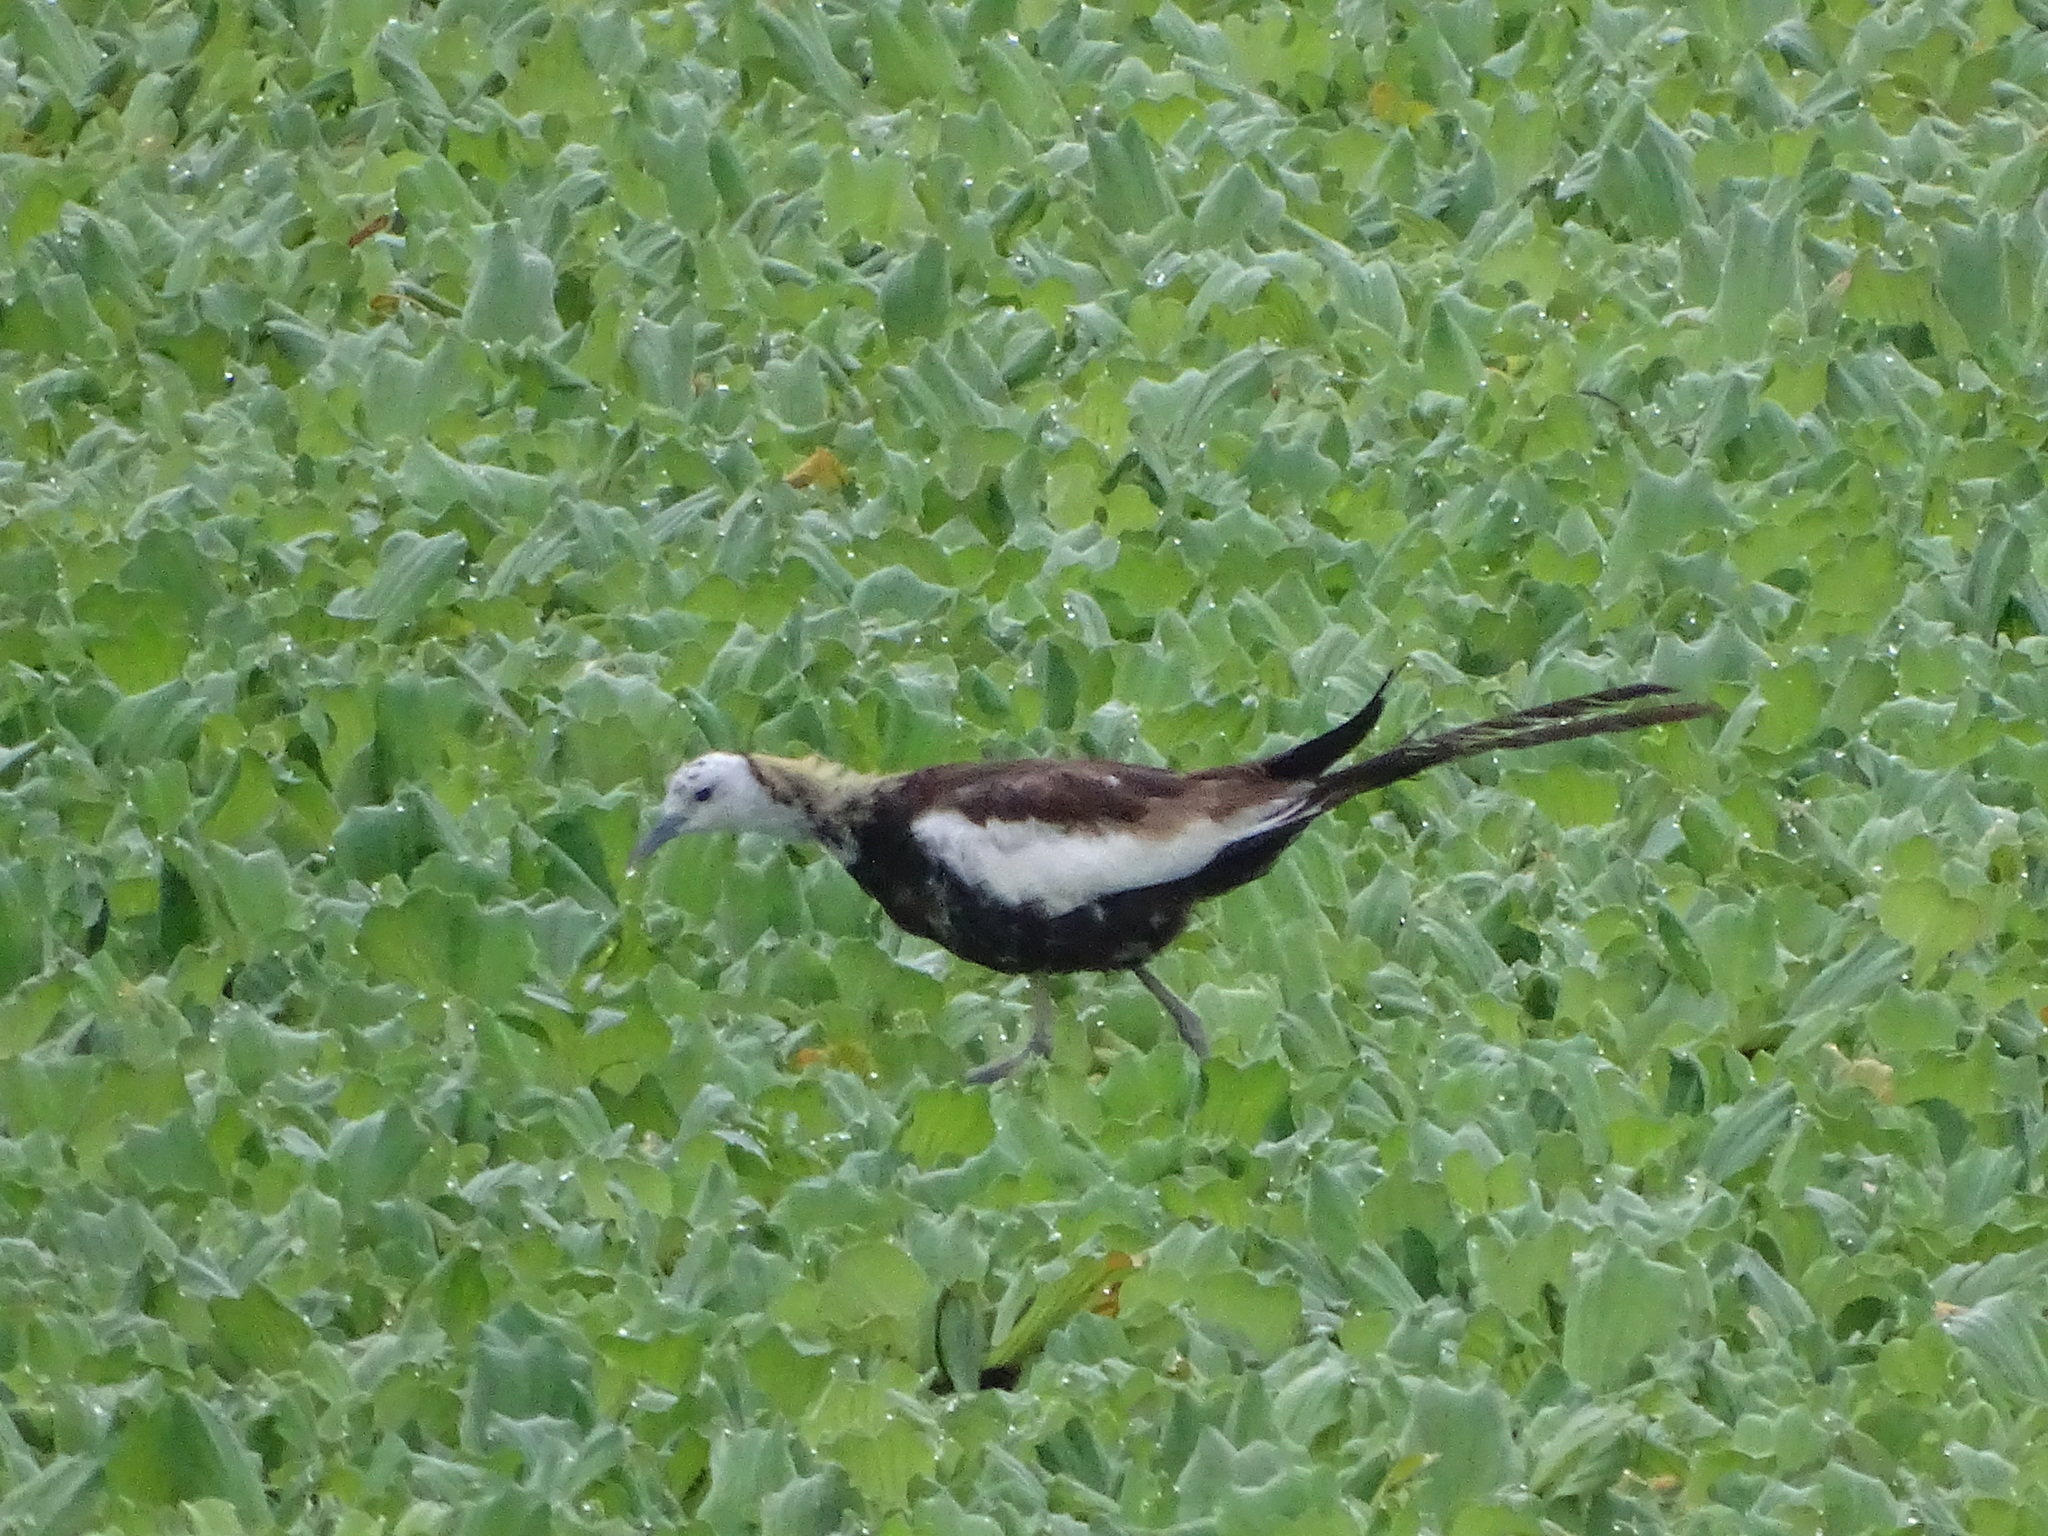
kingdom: Animalia
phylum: Chordata
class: Aves
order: Charadriiformes
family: Jacanidae
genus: Hydrophasianus
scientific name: Hydrophasianus chirurgus
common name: Pheasant-tailed jacana
